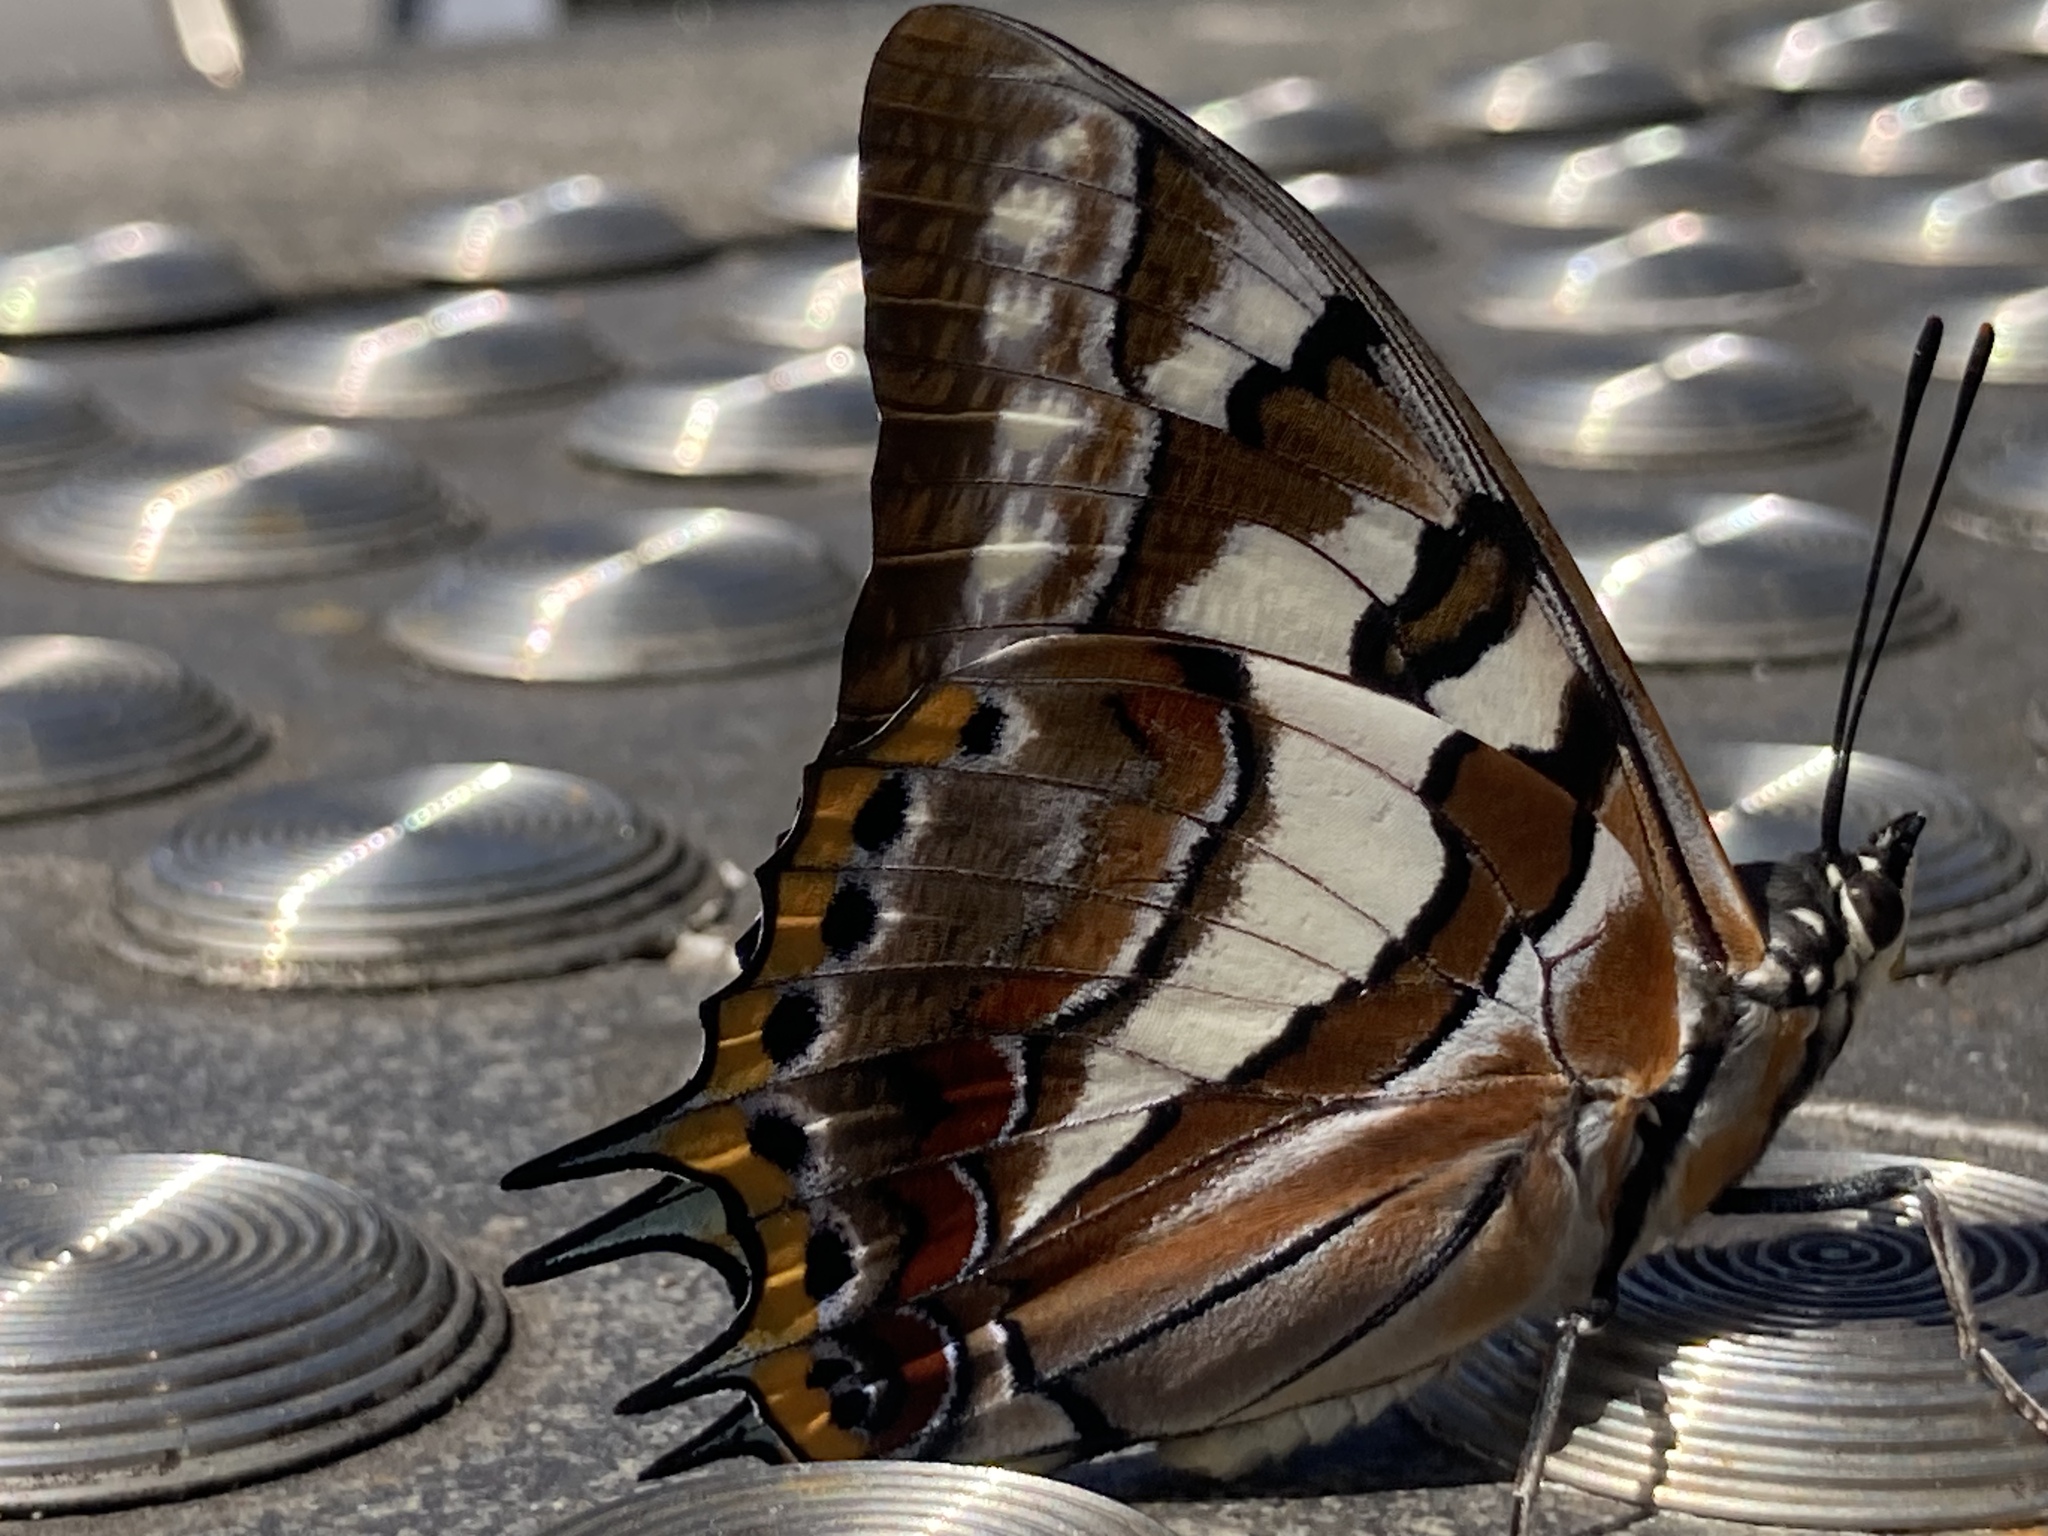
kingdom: Animalia
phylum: Arthropoda
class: Insecta
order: Lepidoptera
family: Nymphalidae
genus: Charaxes
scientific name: Charaxes
